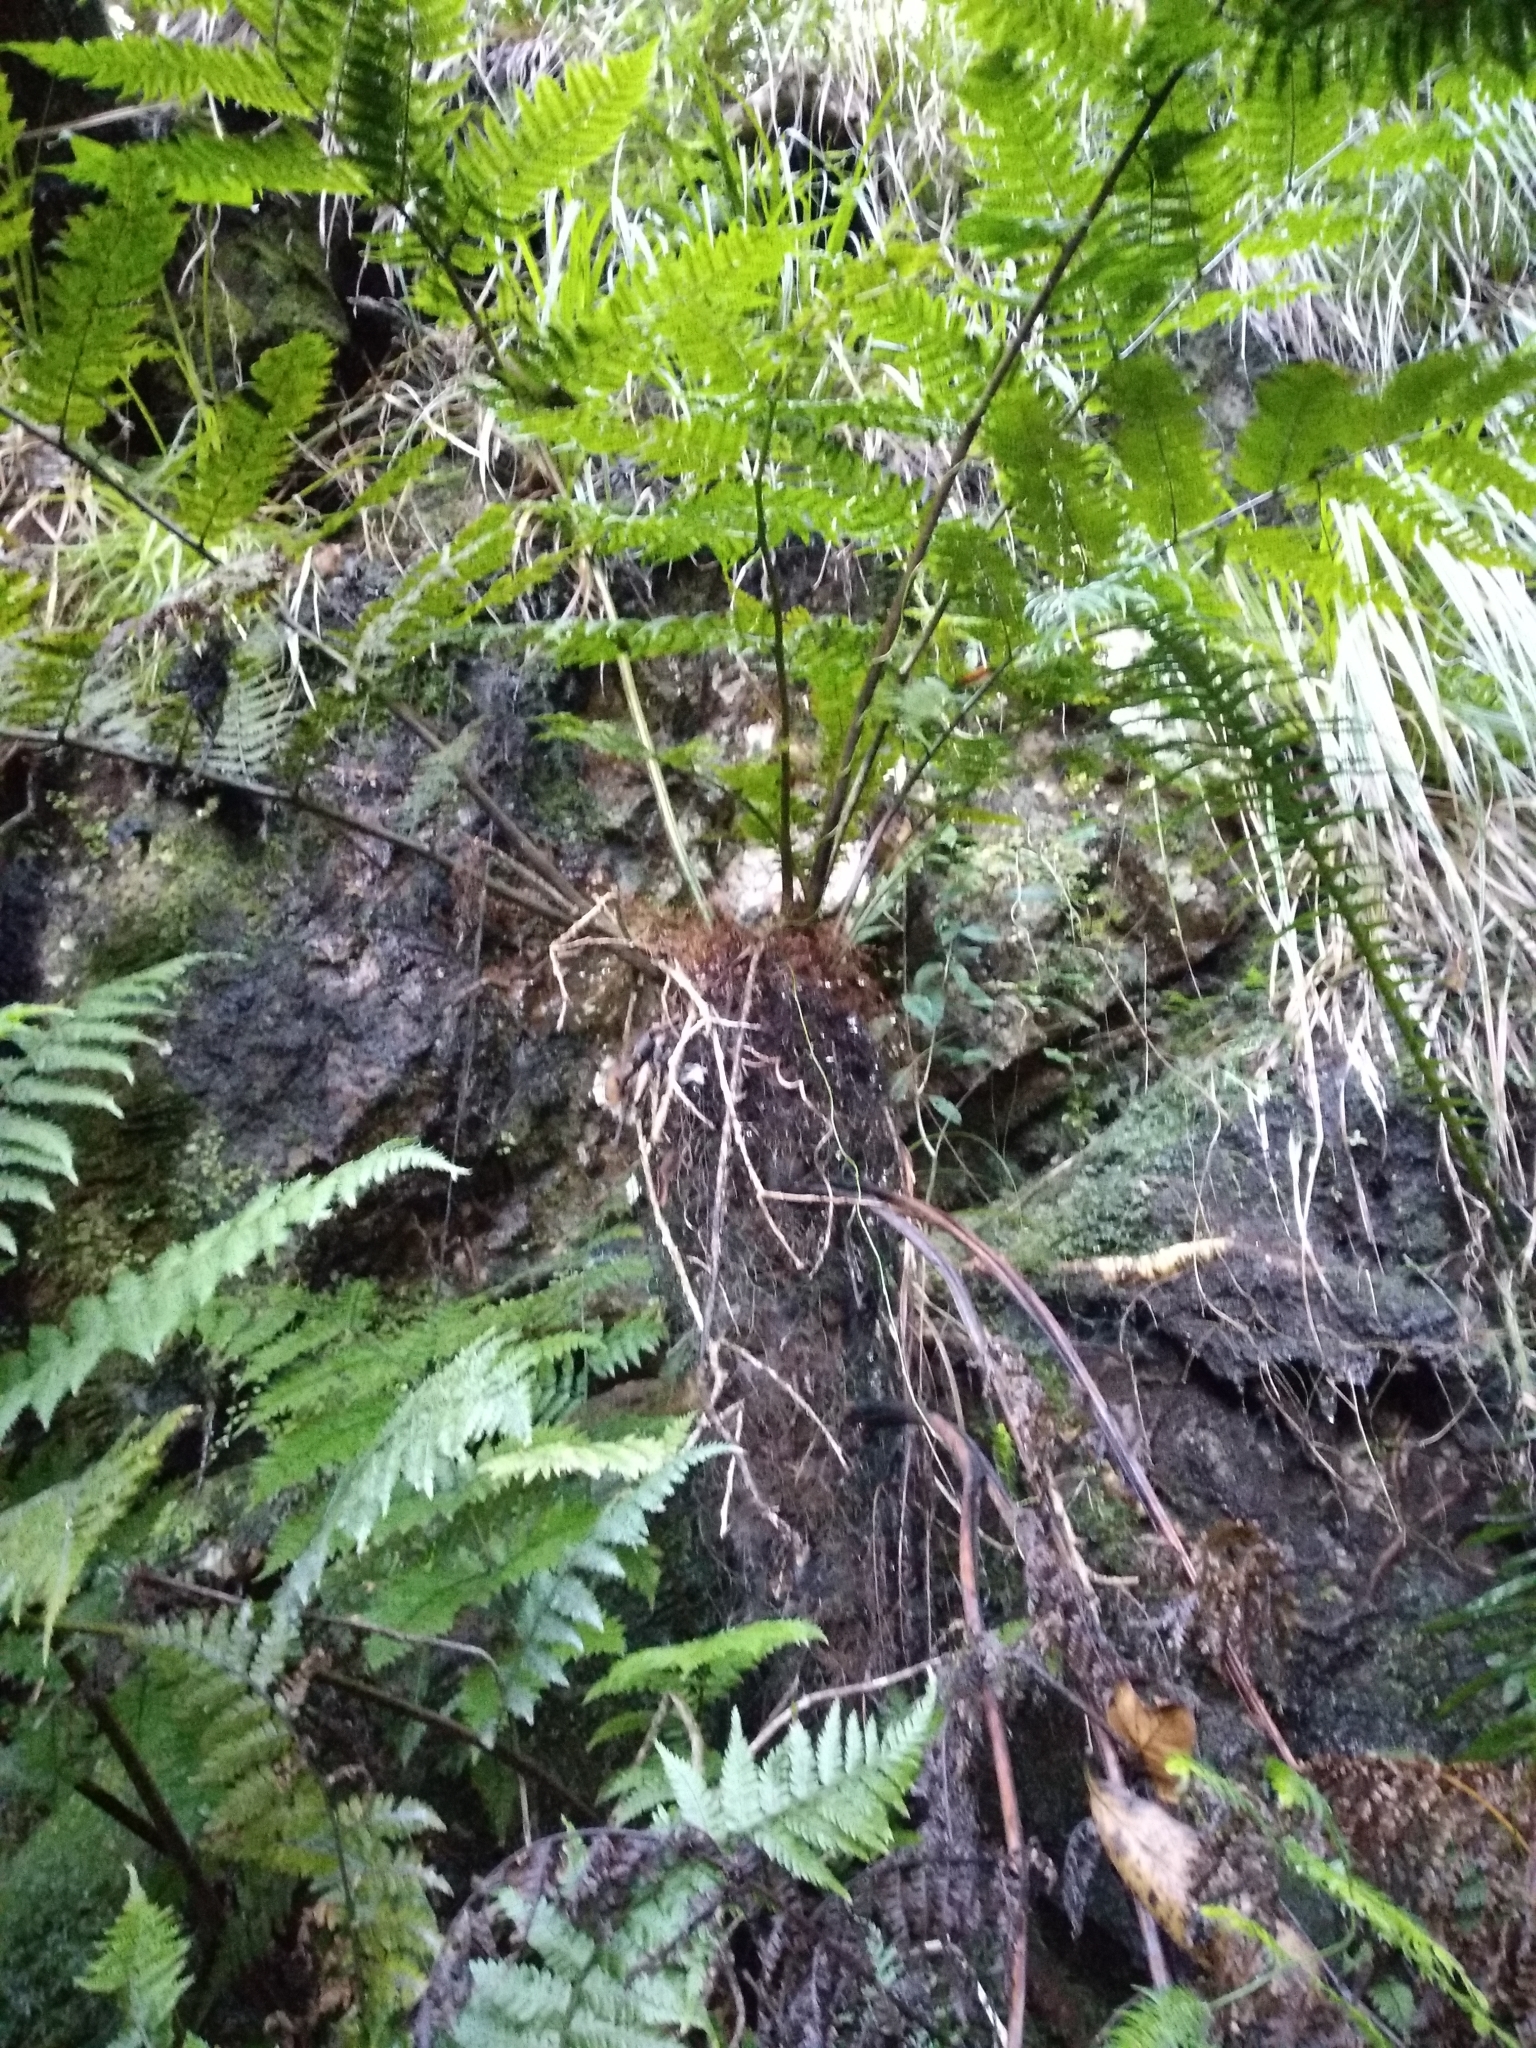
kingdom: Plantae
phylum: Tracheophyta
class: Polypodiopsida
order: Cyatheales
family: Cyatheaceae
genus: Gymnosphaera
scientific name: Gymnosphaera capensis
